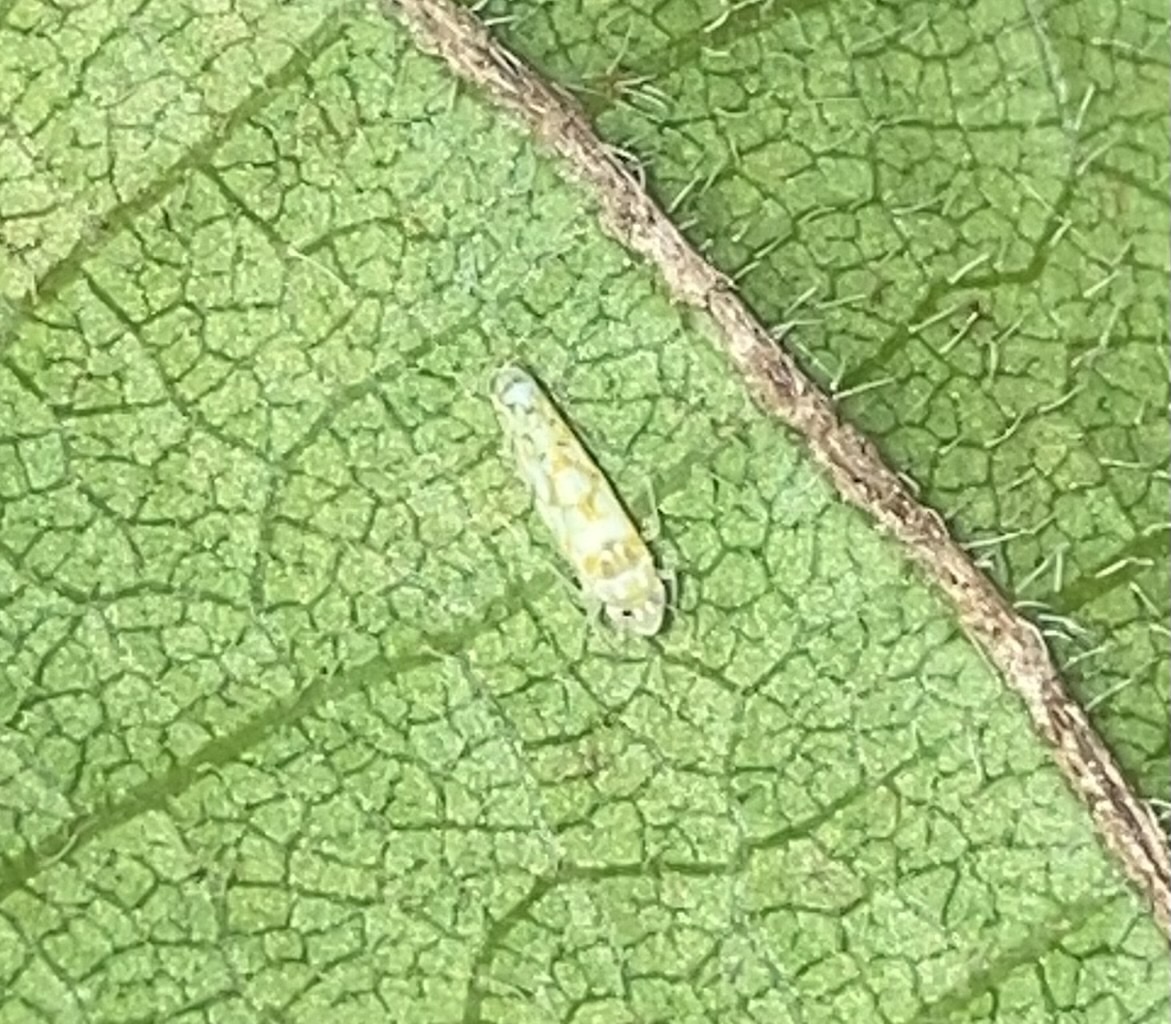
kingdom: Animalia
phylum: Arthropoda
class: Insecta
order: Hemiptera
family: Cicadellidae
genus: Protalebra
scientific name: Protalebra nexa
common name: Leafhopper
